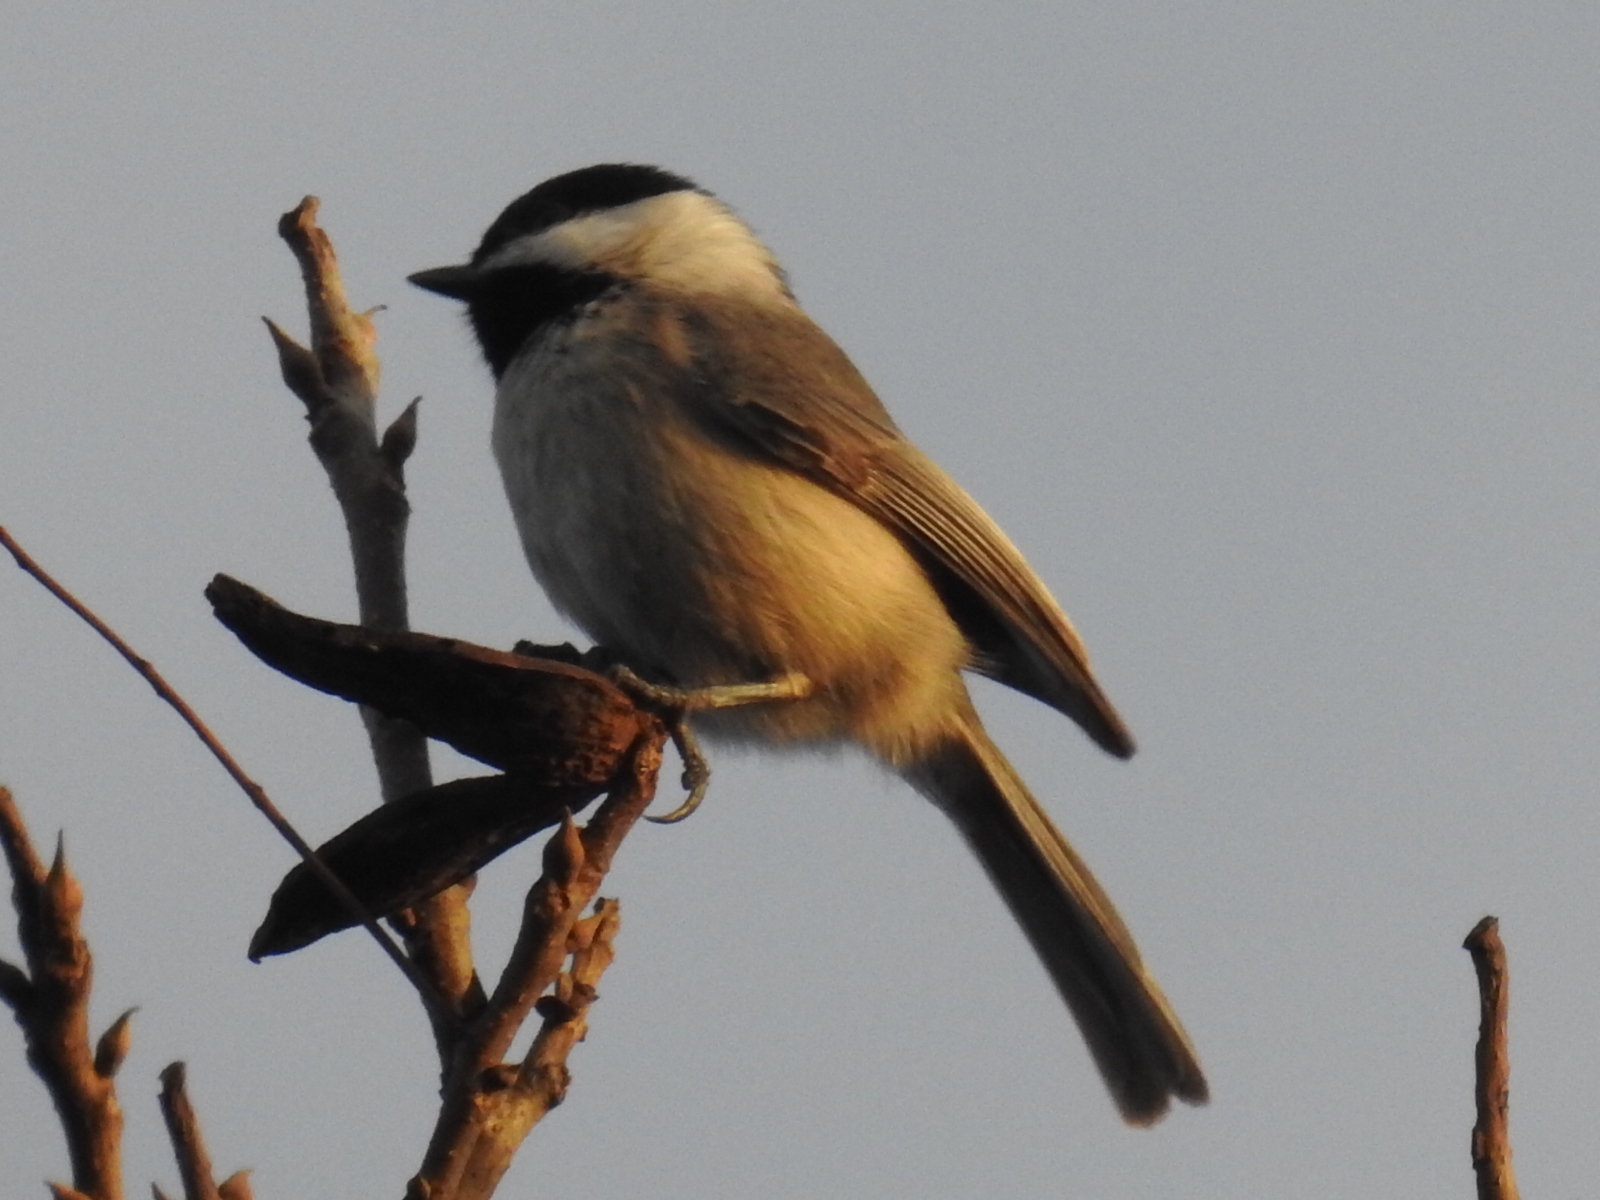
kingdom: Animalia
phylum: Chordata
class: Aves
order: Passeriformes
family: Paridae
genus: Poecile
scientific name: Poecile carolinensis
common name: Carolina chickadee
